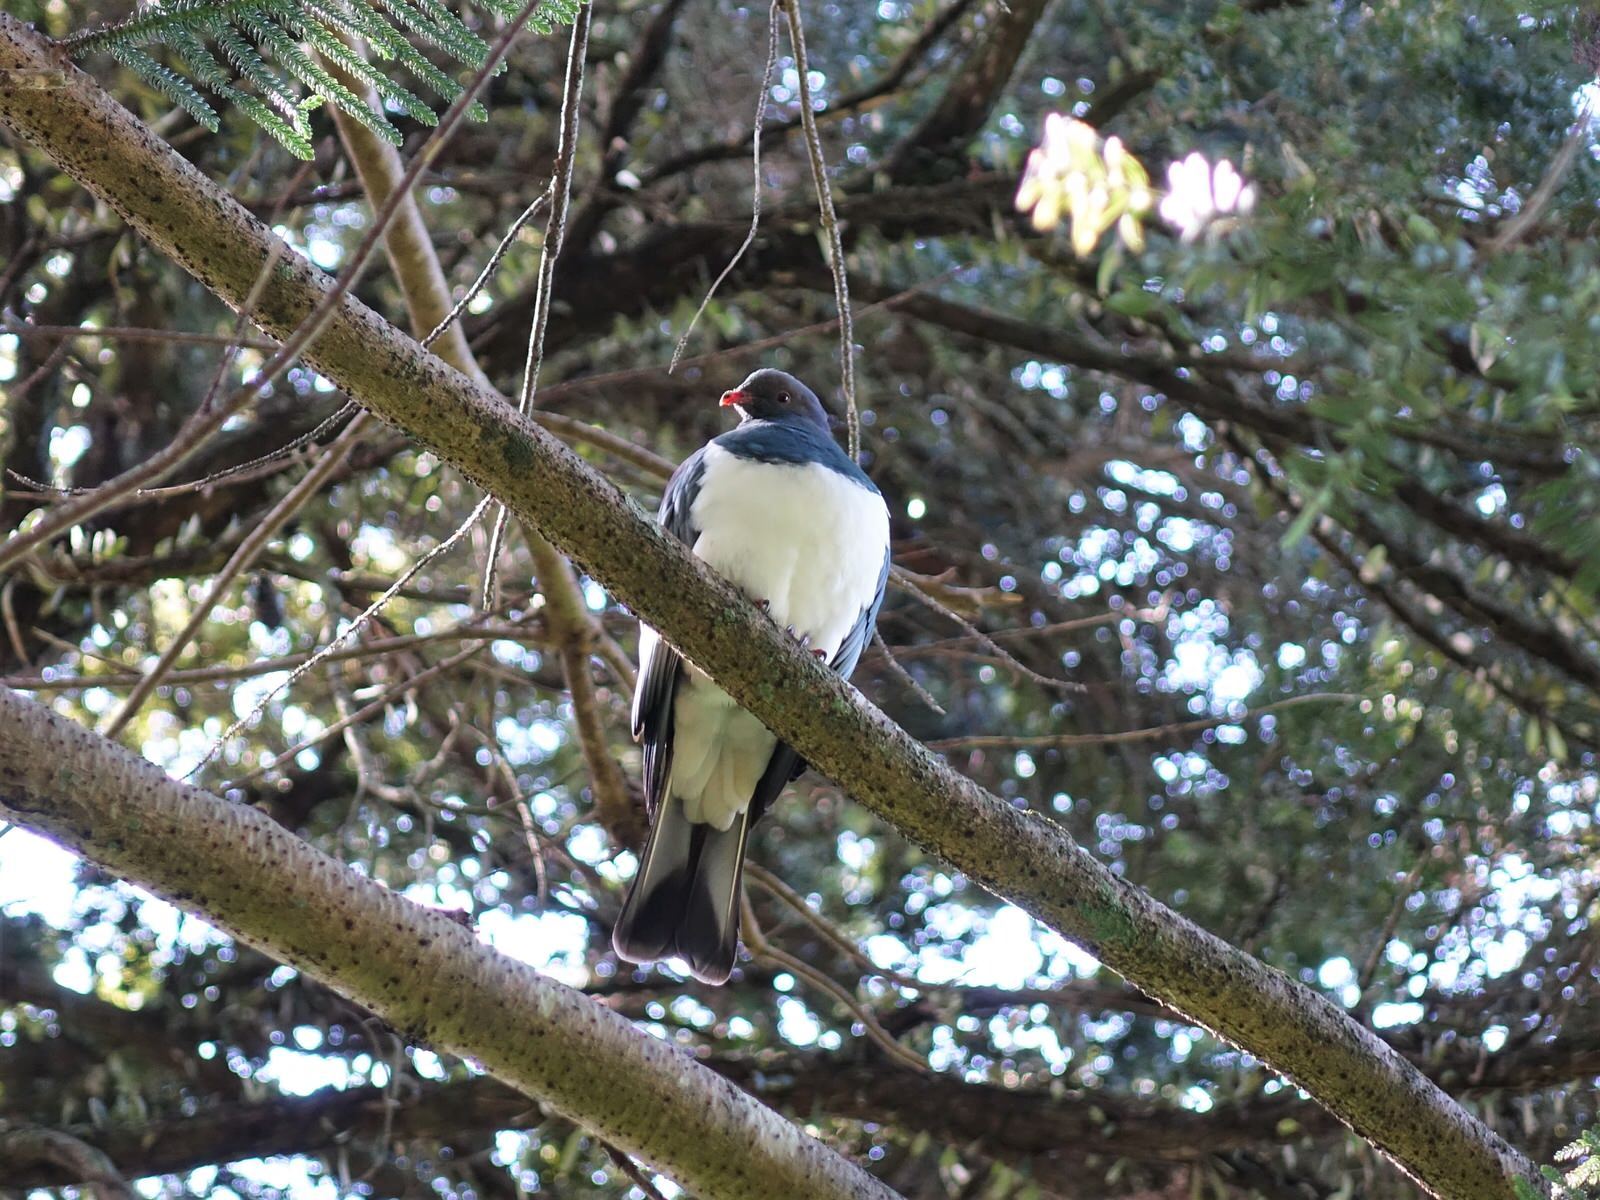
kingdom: Animalia
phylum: Chordata
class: Aves
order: Columbiformes
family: Columbidae
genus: Hemiphaga
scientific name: Hemiphaga novaeseelandiae
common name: New zealand pigeon
